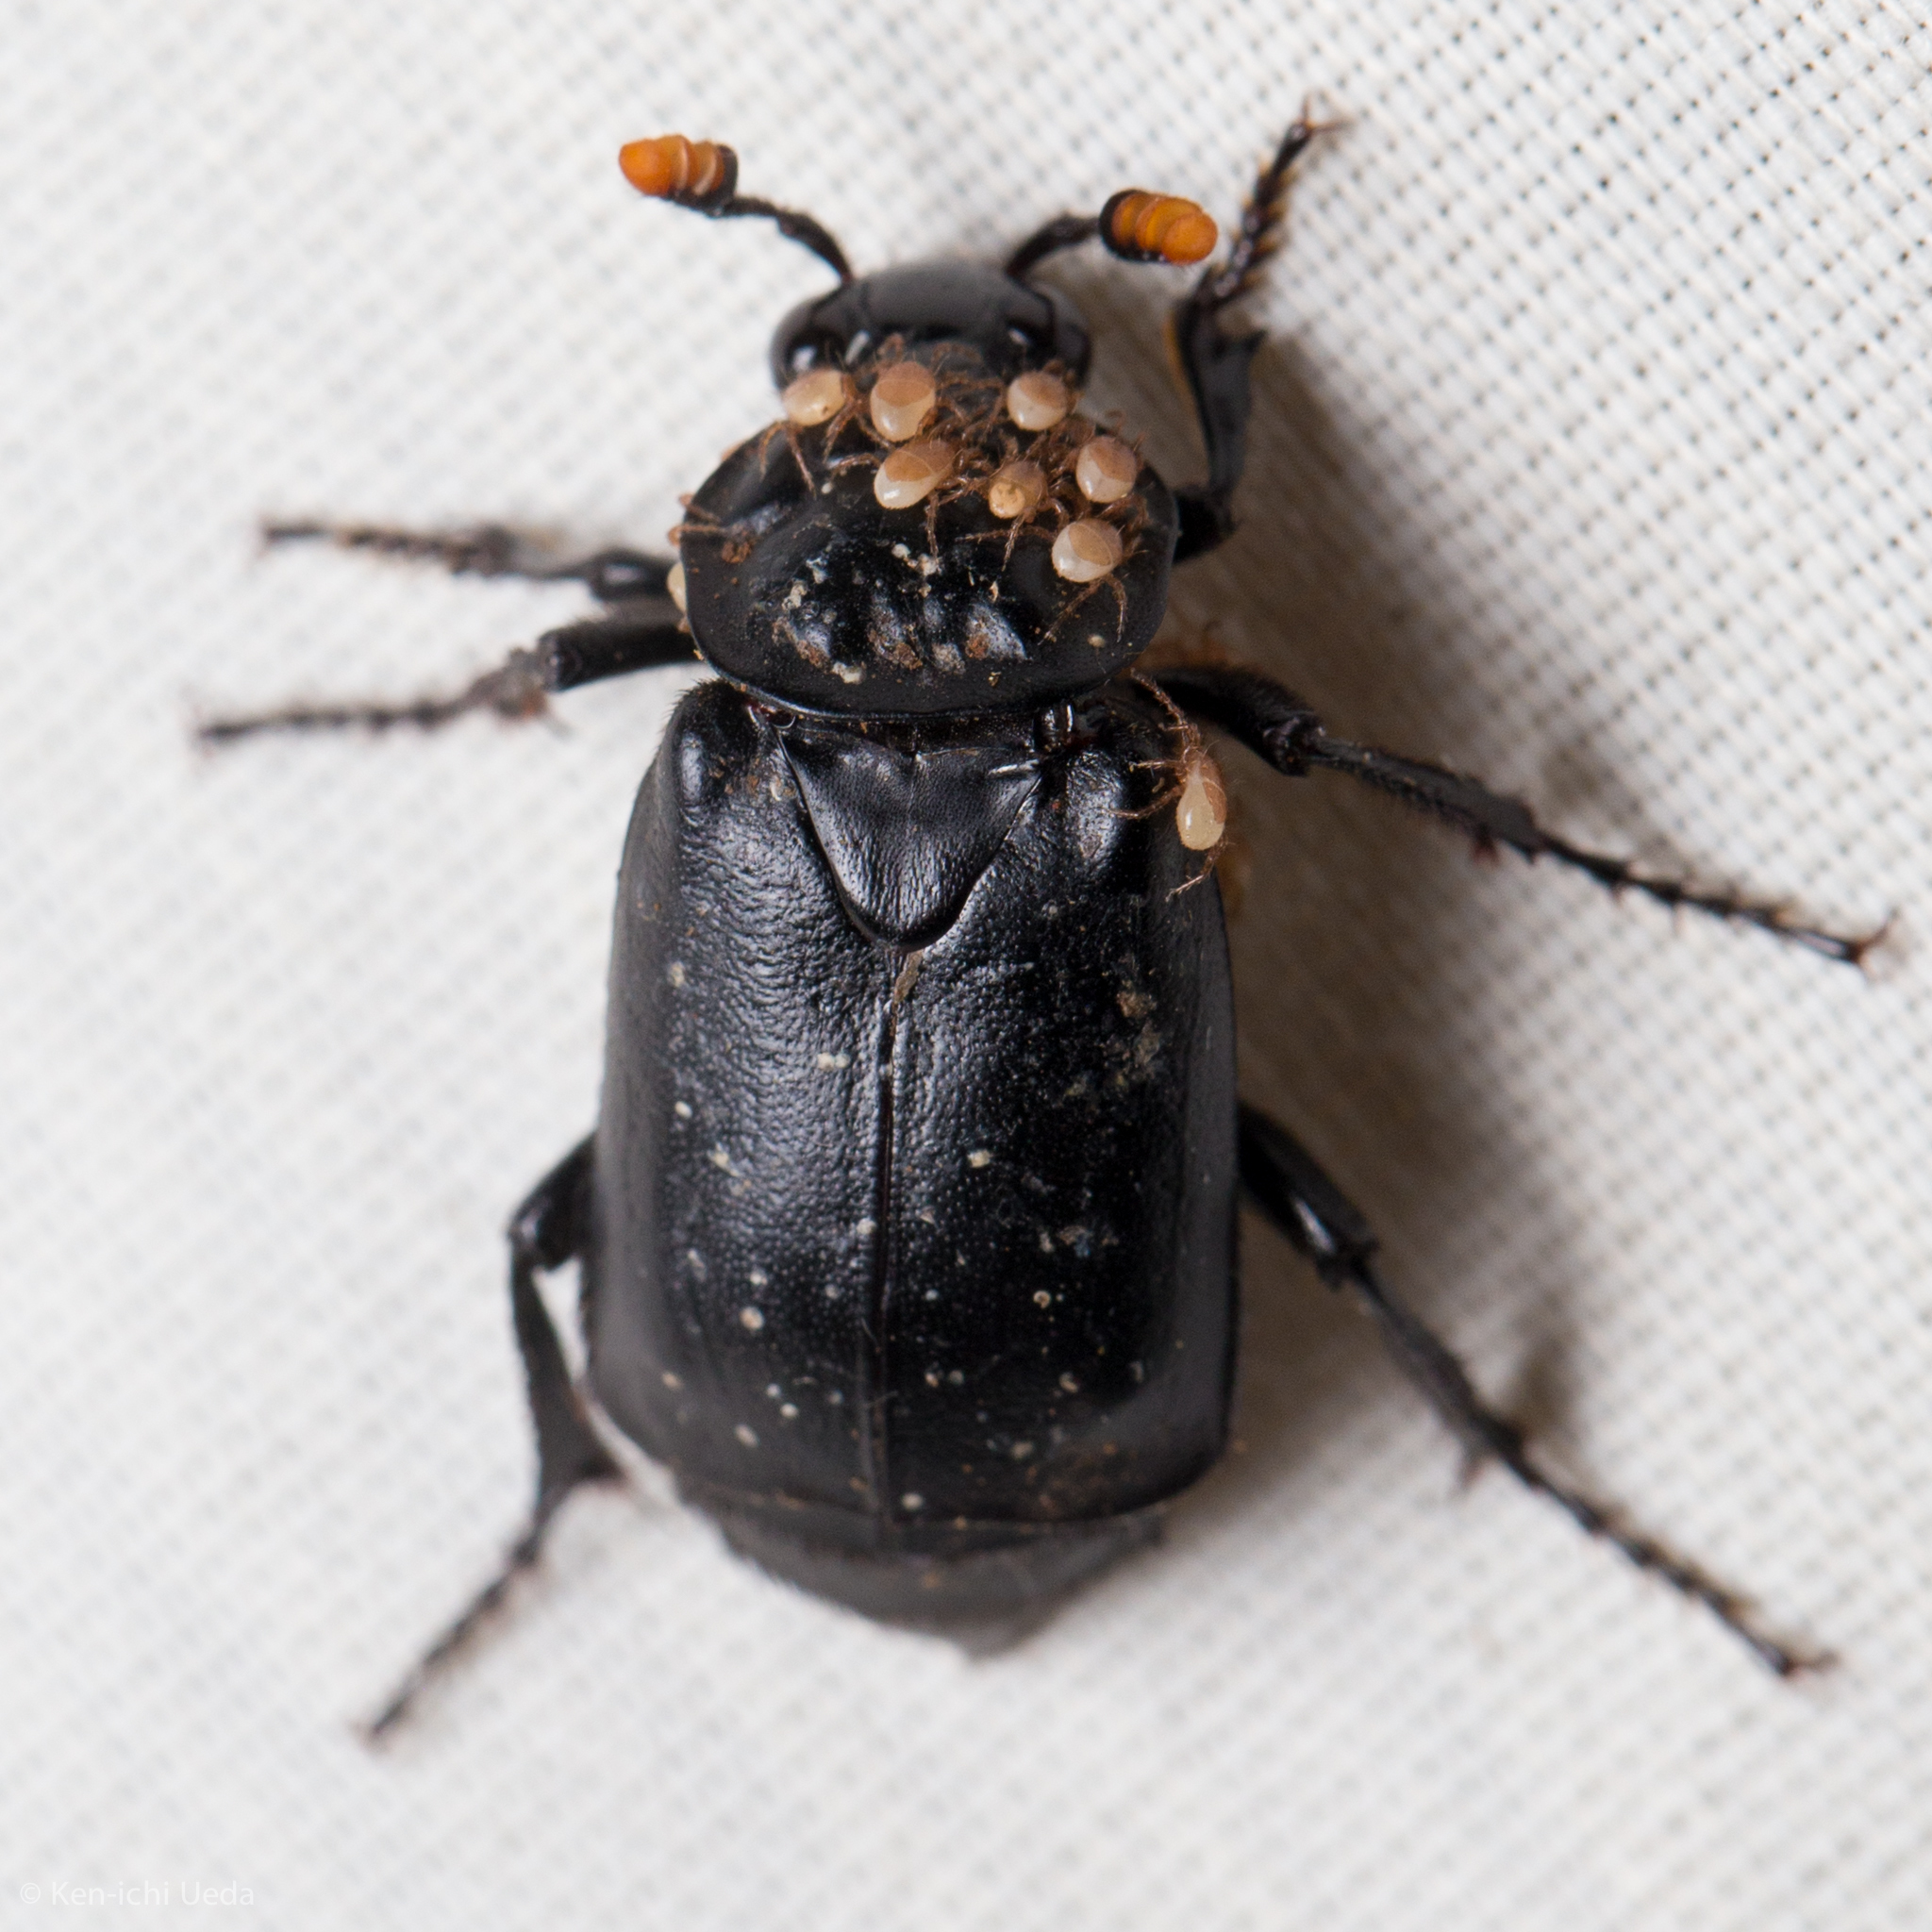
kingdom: Animalia
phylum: Arthropoda
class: Insecta
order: Coleoptera
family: Staphylinidae
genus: Nicrophorus
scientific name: Nicrophorus nigrita
